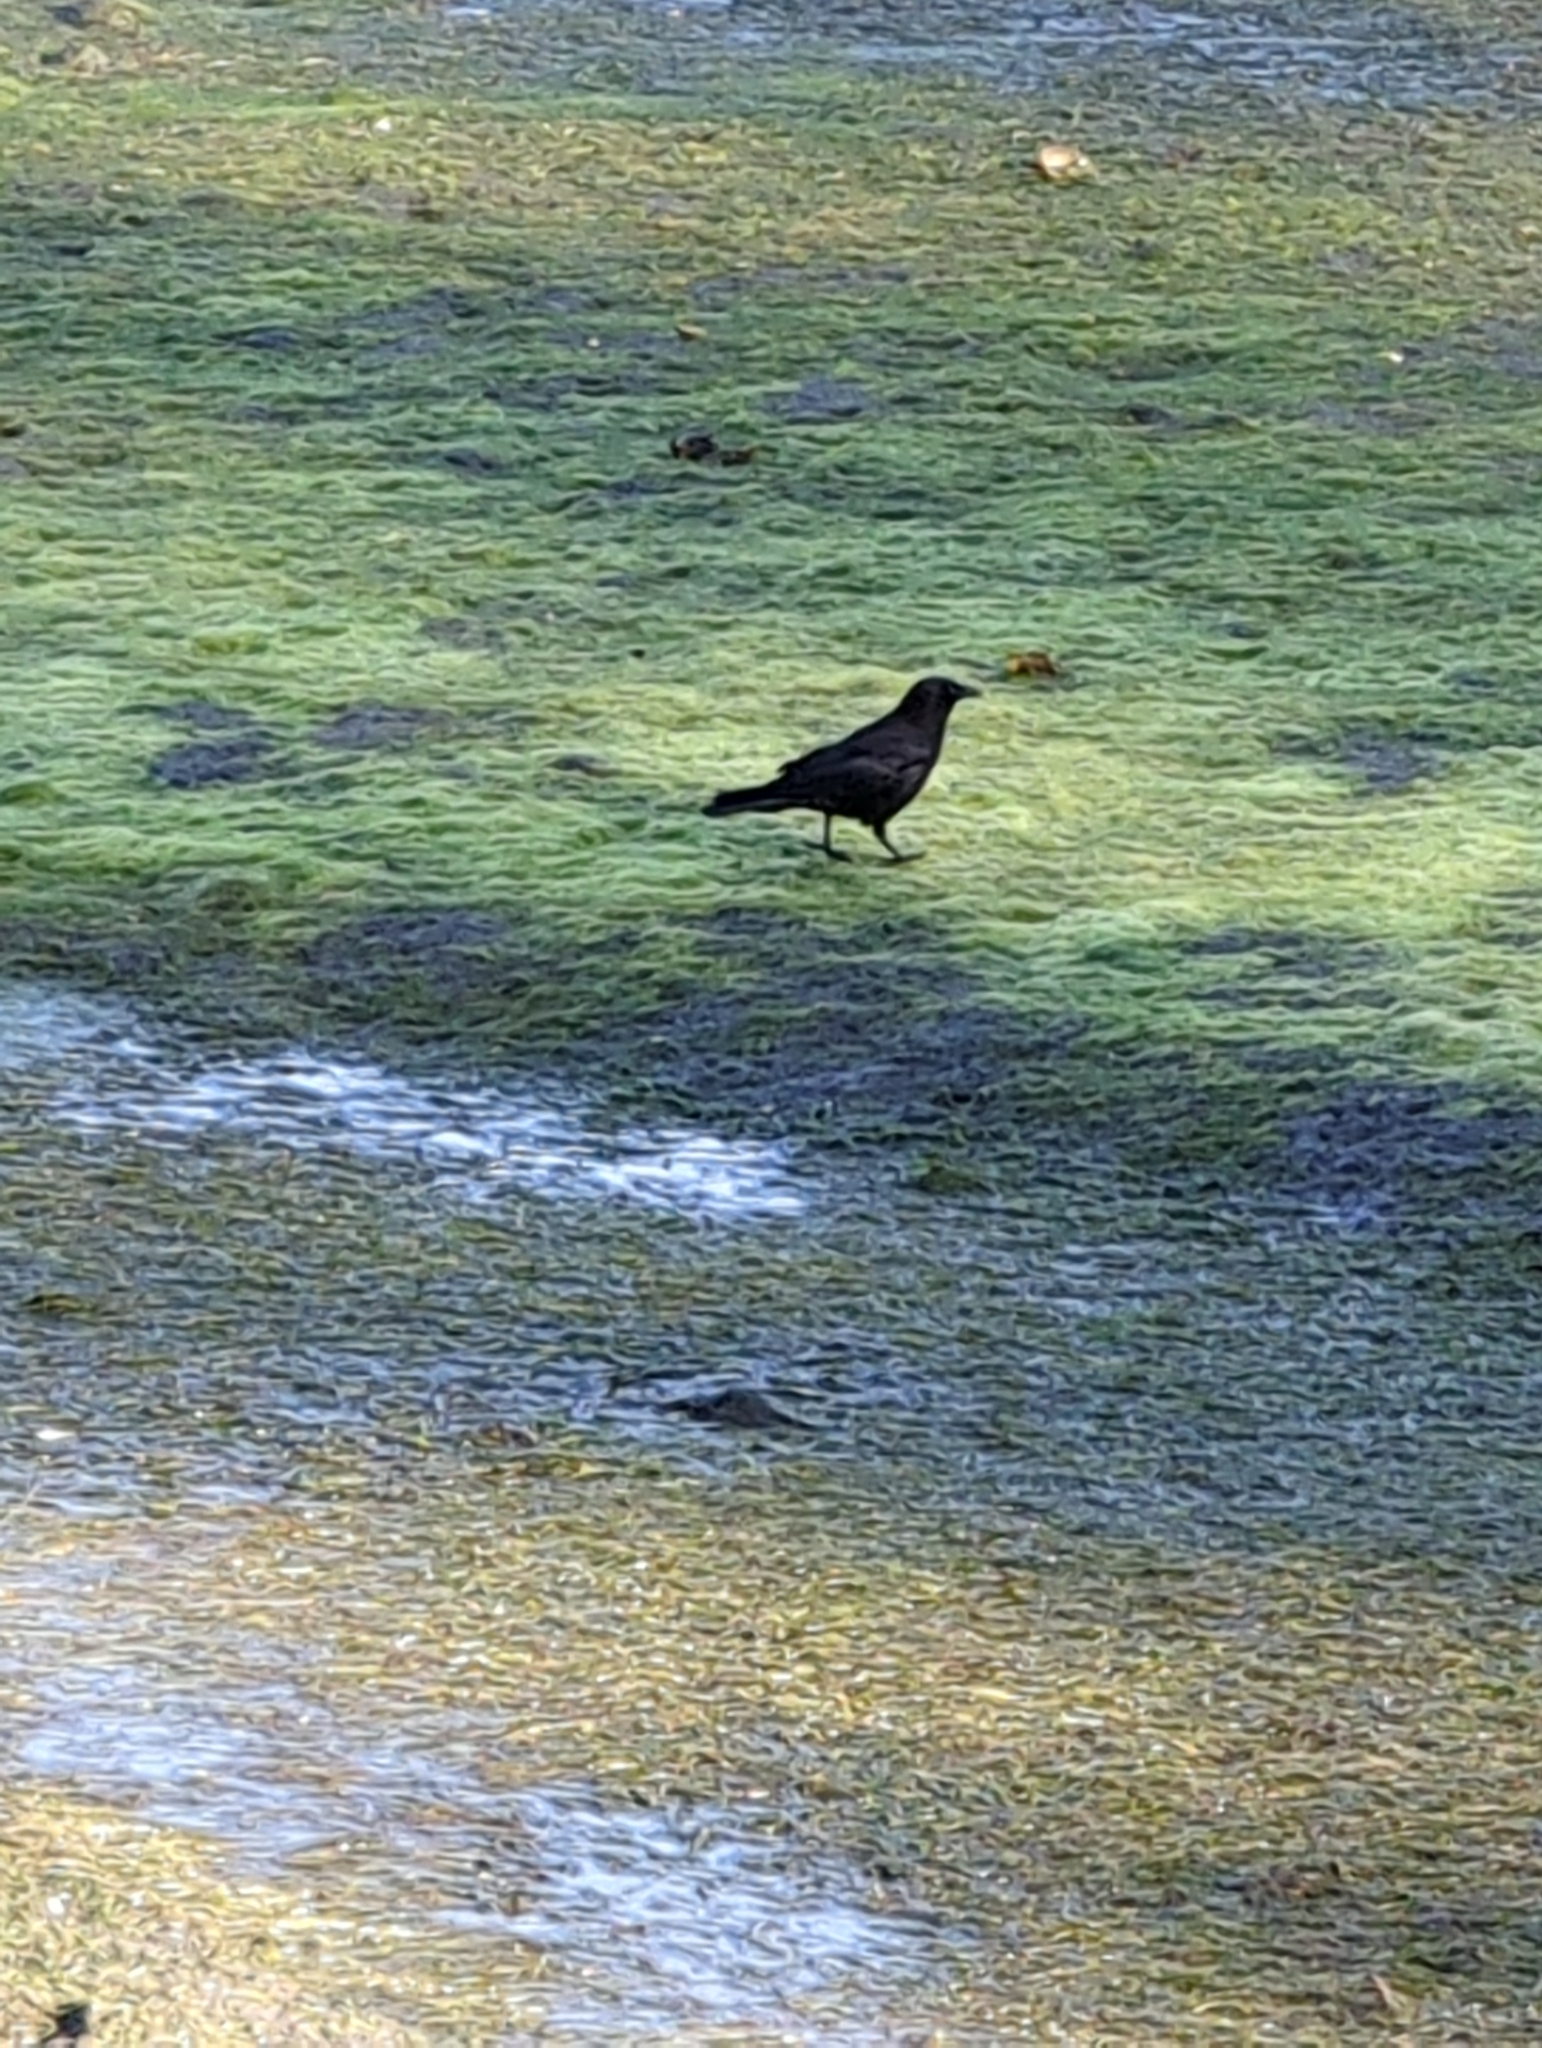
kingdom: Animalia
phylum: Chordata
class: Aves
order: Passeriformes
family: Corvidae
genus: Corvus
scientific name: Corvus brachyrhynchos
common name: American crow
